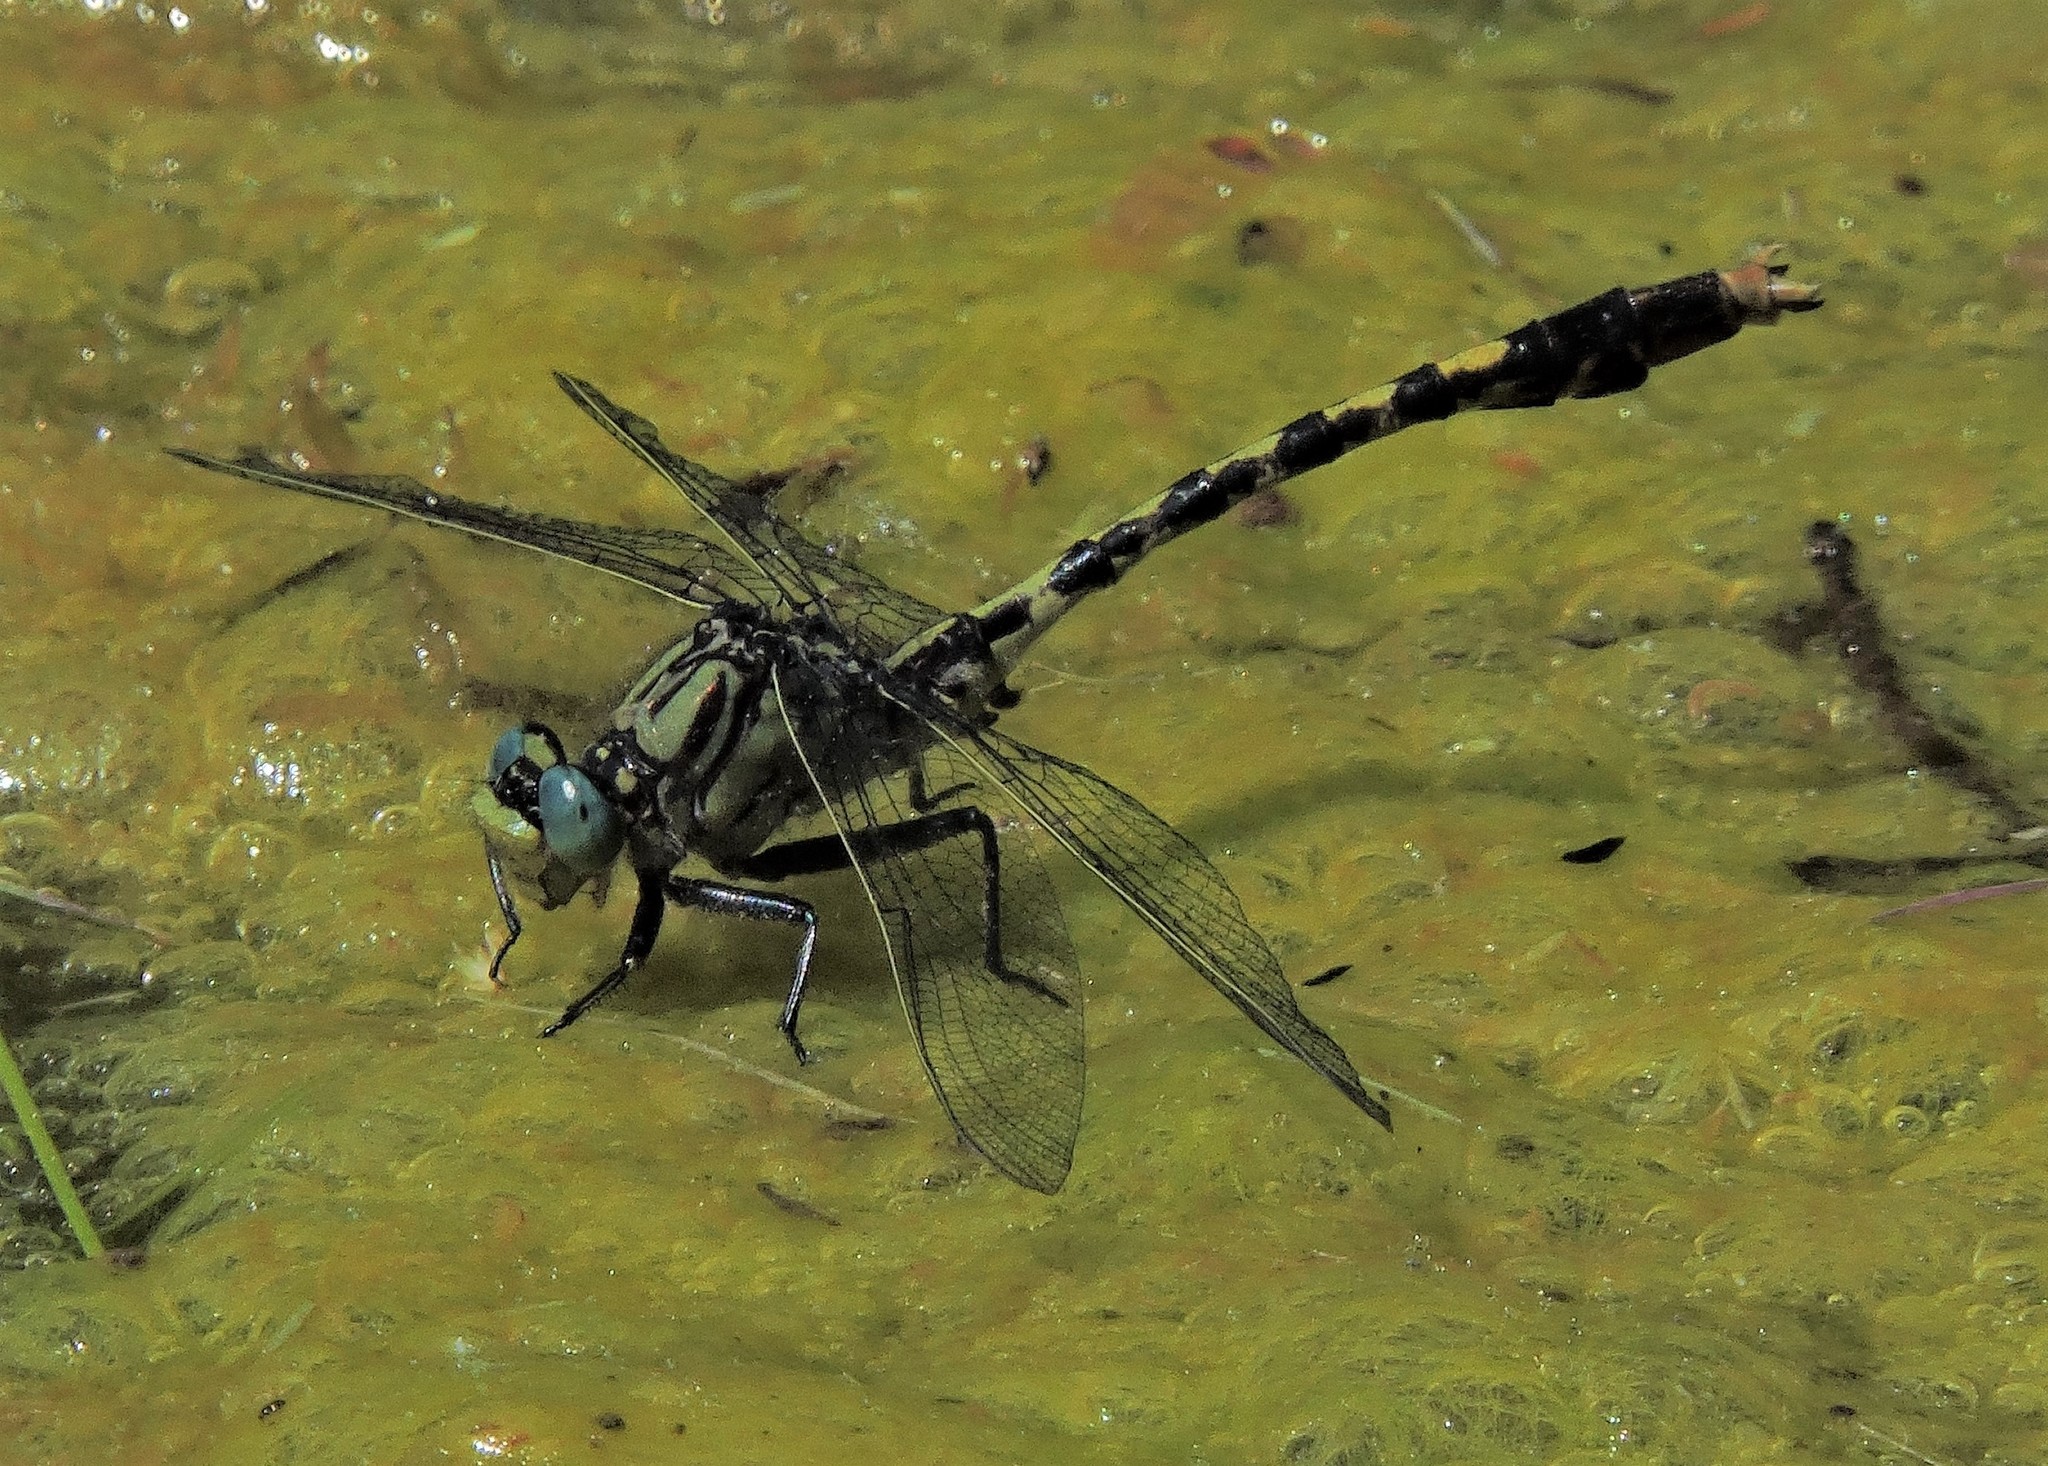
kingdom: Animalia
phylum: Arthropoda
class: Insecta
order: Odonata
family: Gomphidae
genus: Arigomphus
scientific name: Arigomphus villosipes
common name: Unicorn clubtail
